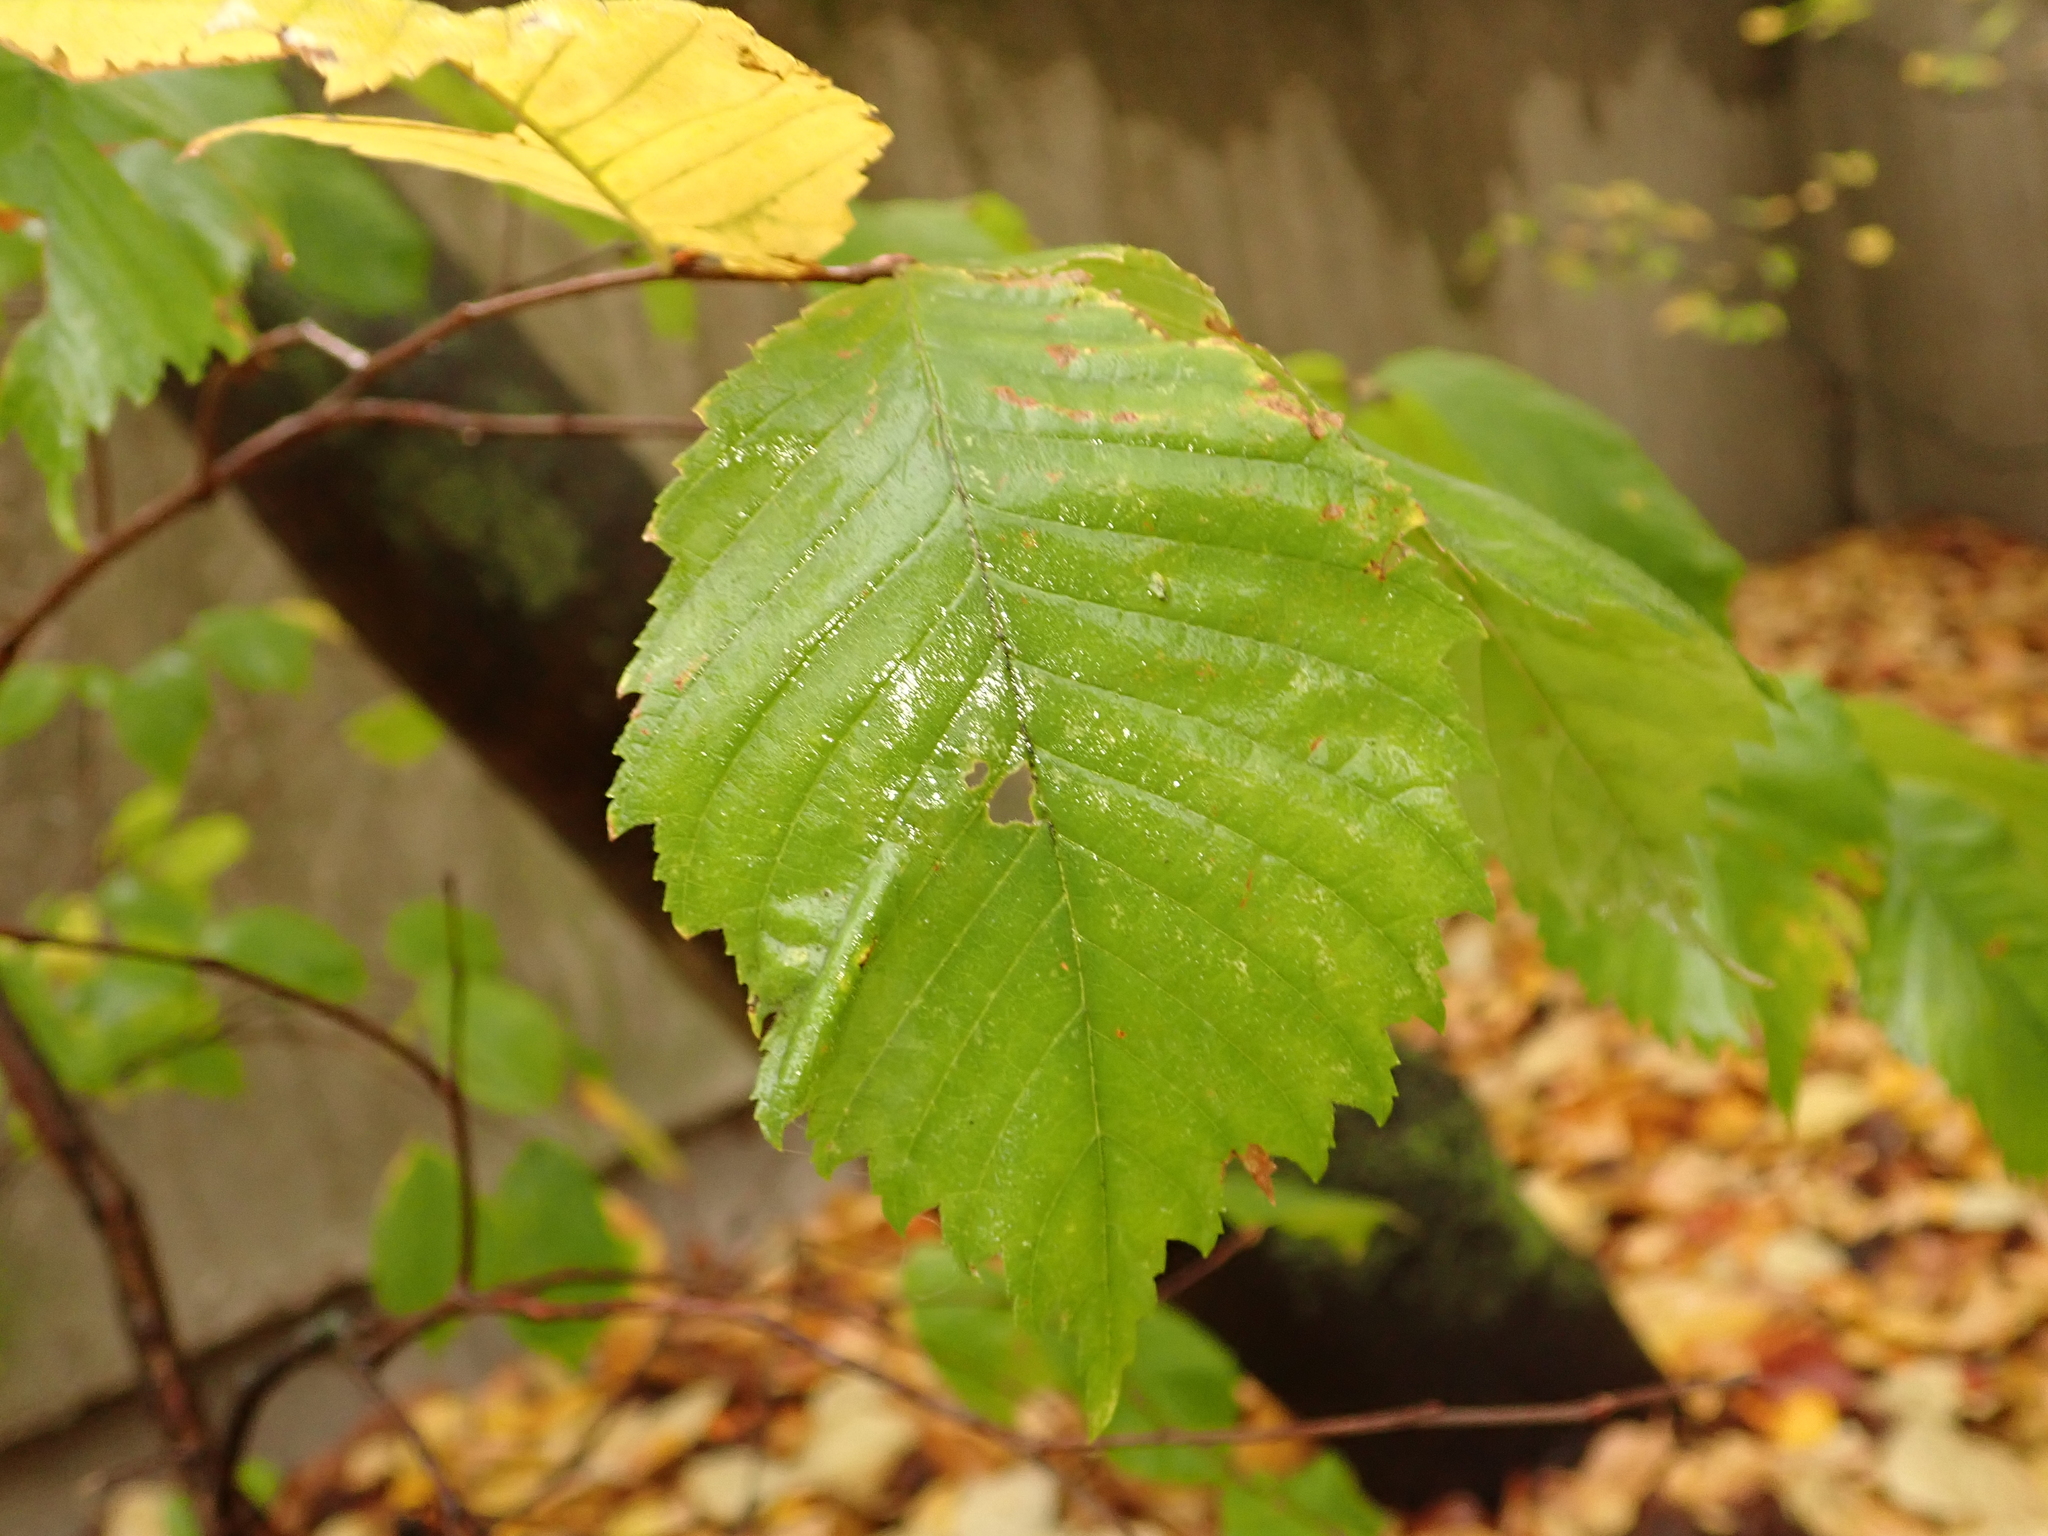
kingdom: Plantae
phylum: Tracheophyta
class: Magnoliopsida
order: Rosales
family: Ulmaceae
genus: Ulmus
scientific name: Ulmus minor
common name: Small-leaved elm
